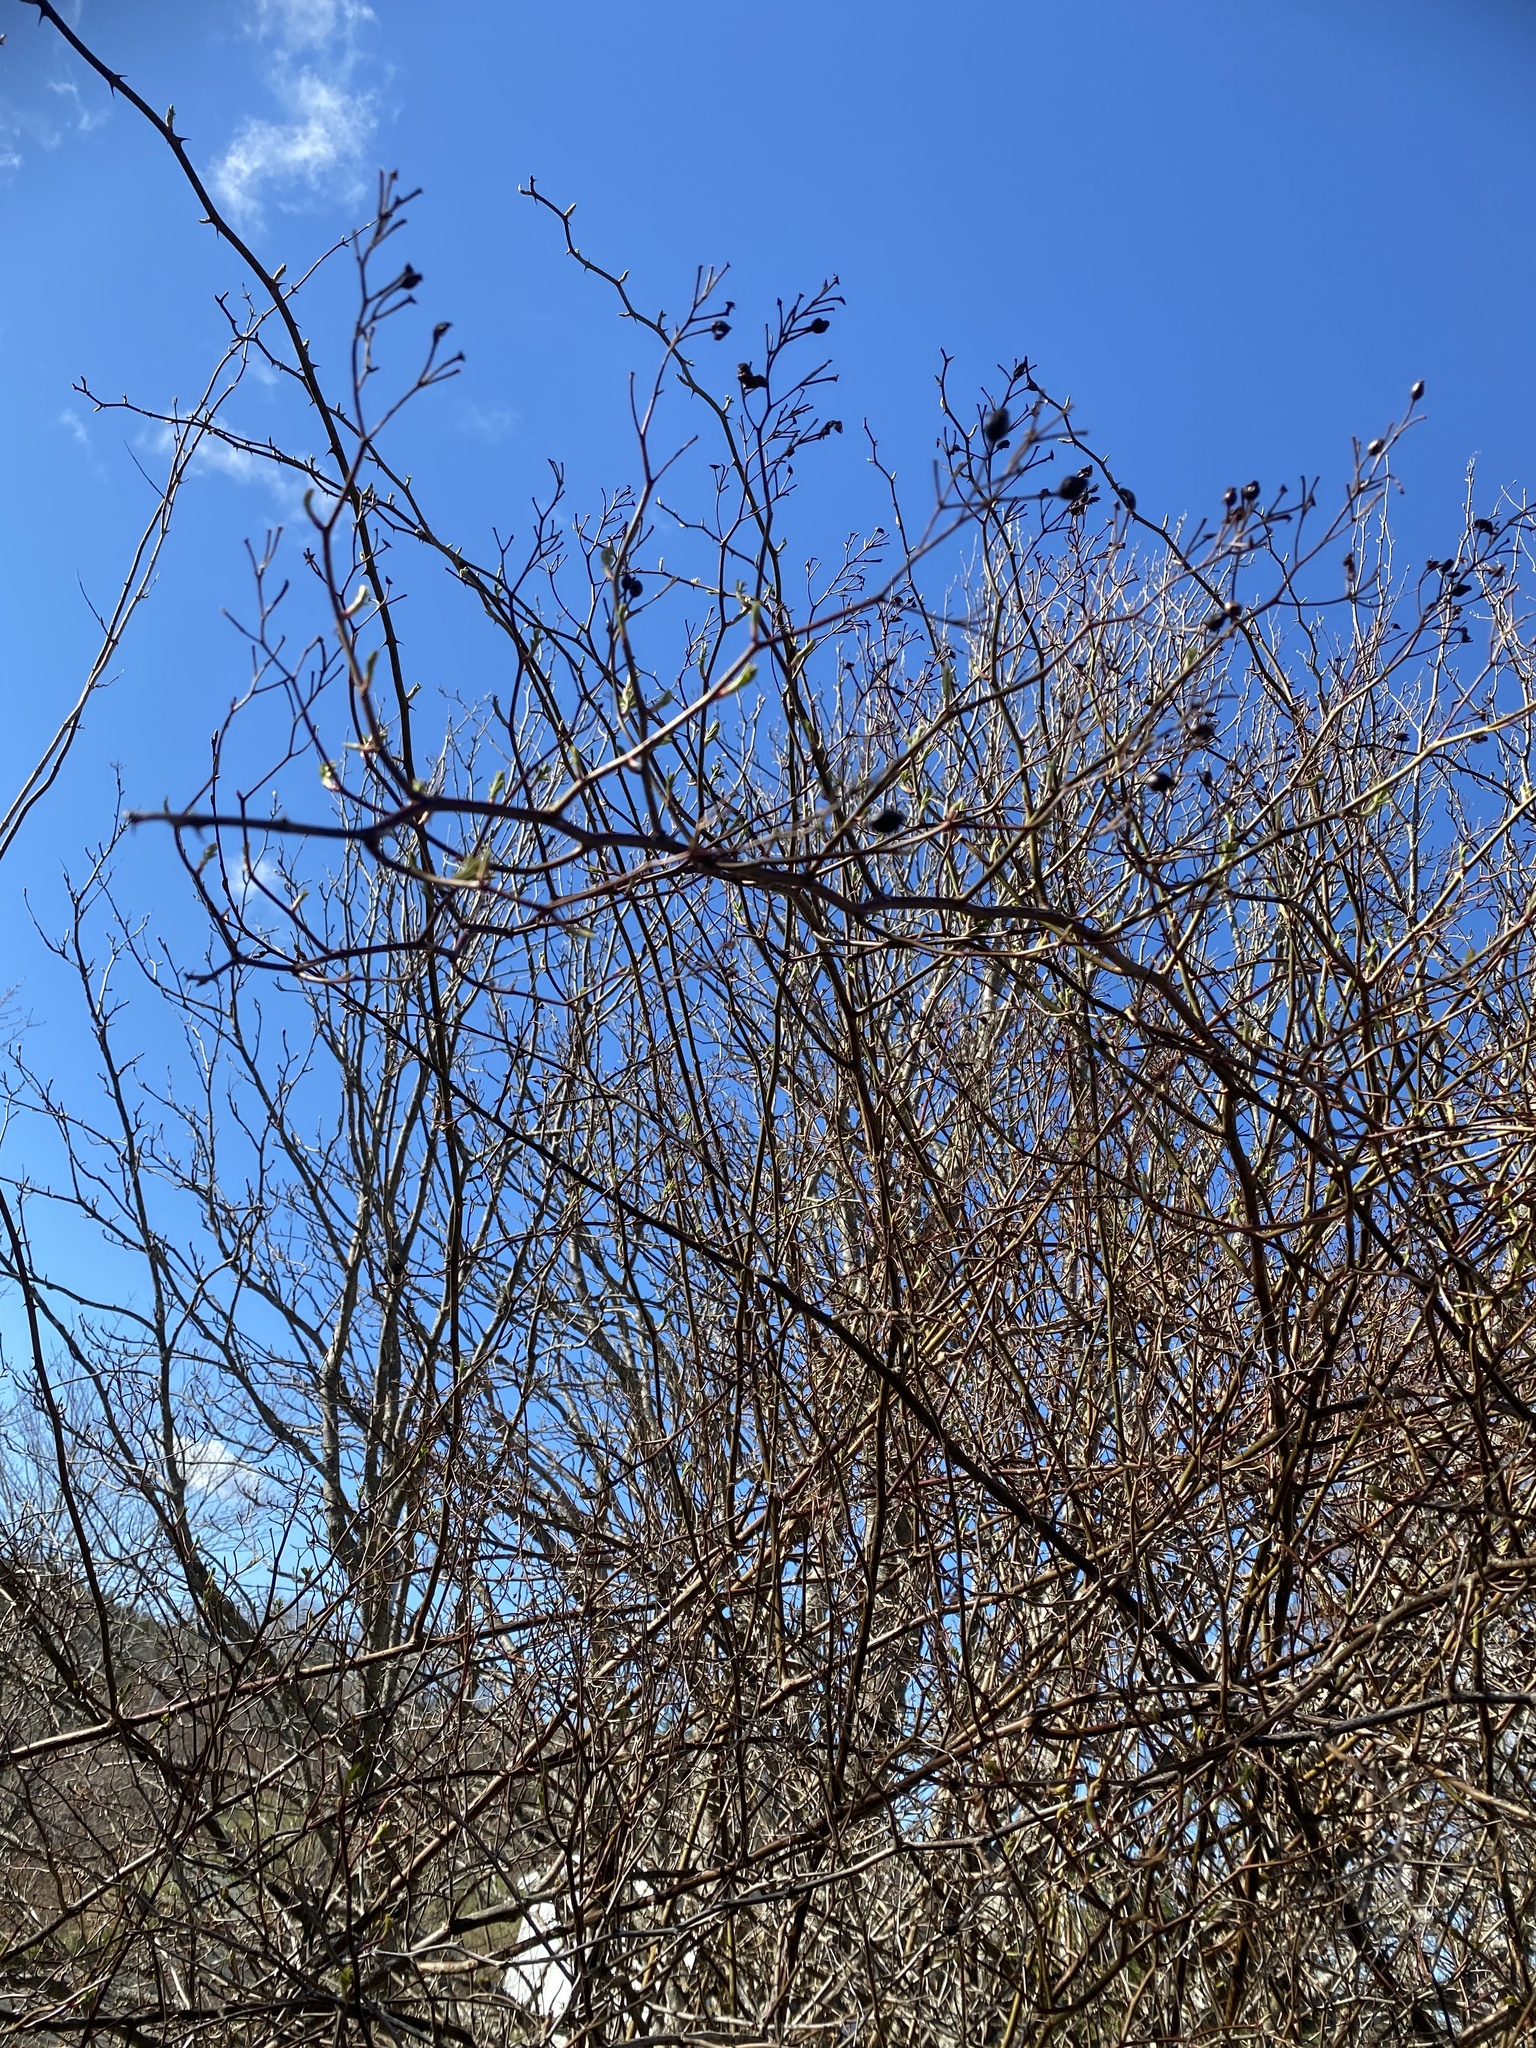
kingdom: Plantae
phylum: Tracheophyta
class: Magnoliopsida
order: Rosales
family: Rosaceae
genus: Rosa
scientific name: Rosa multiflora
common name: Multiflora rose
